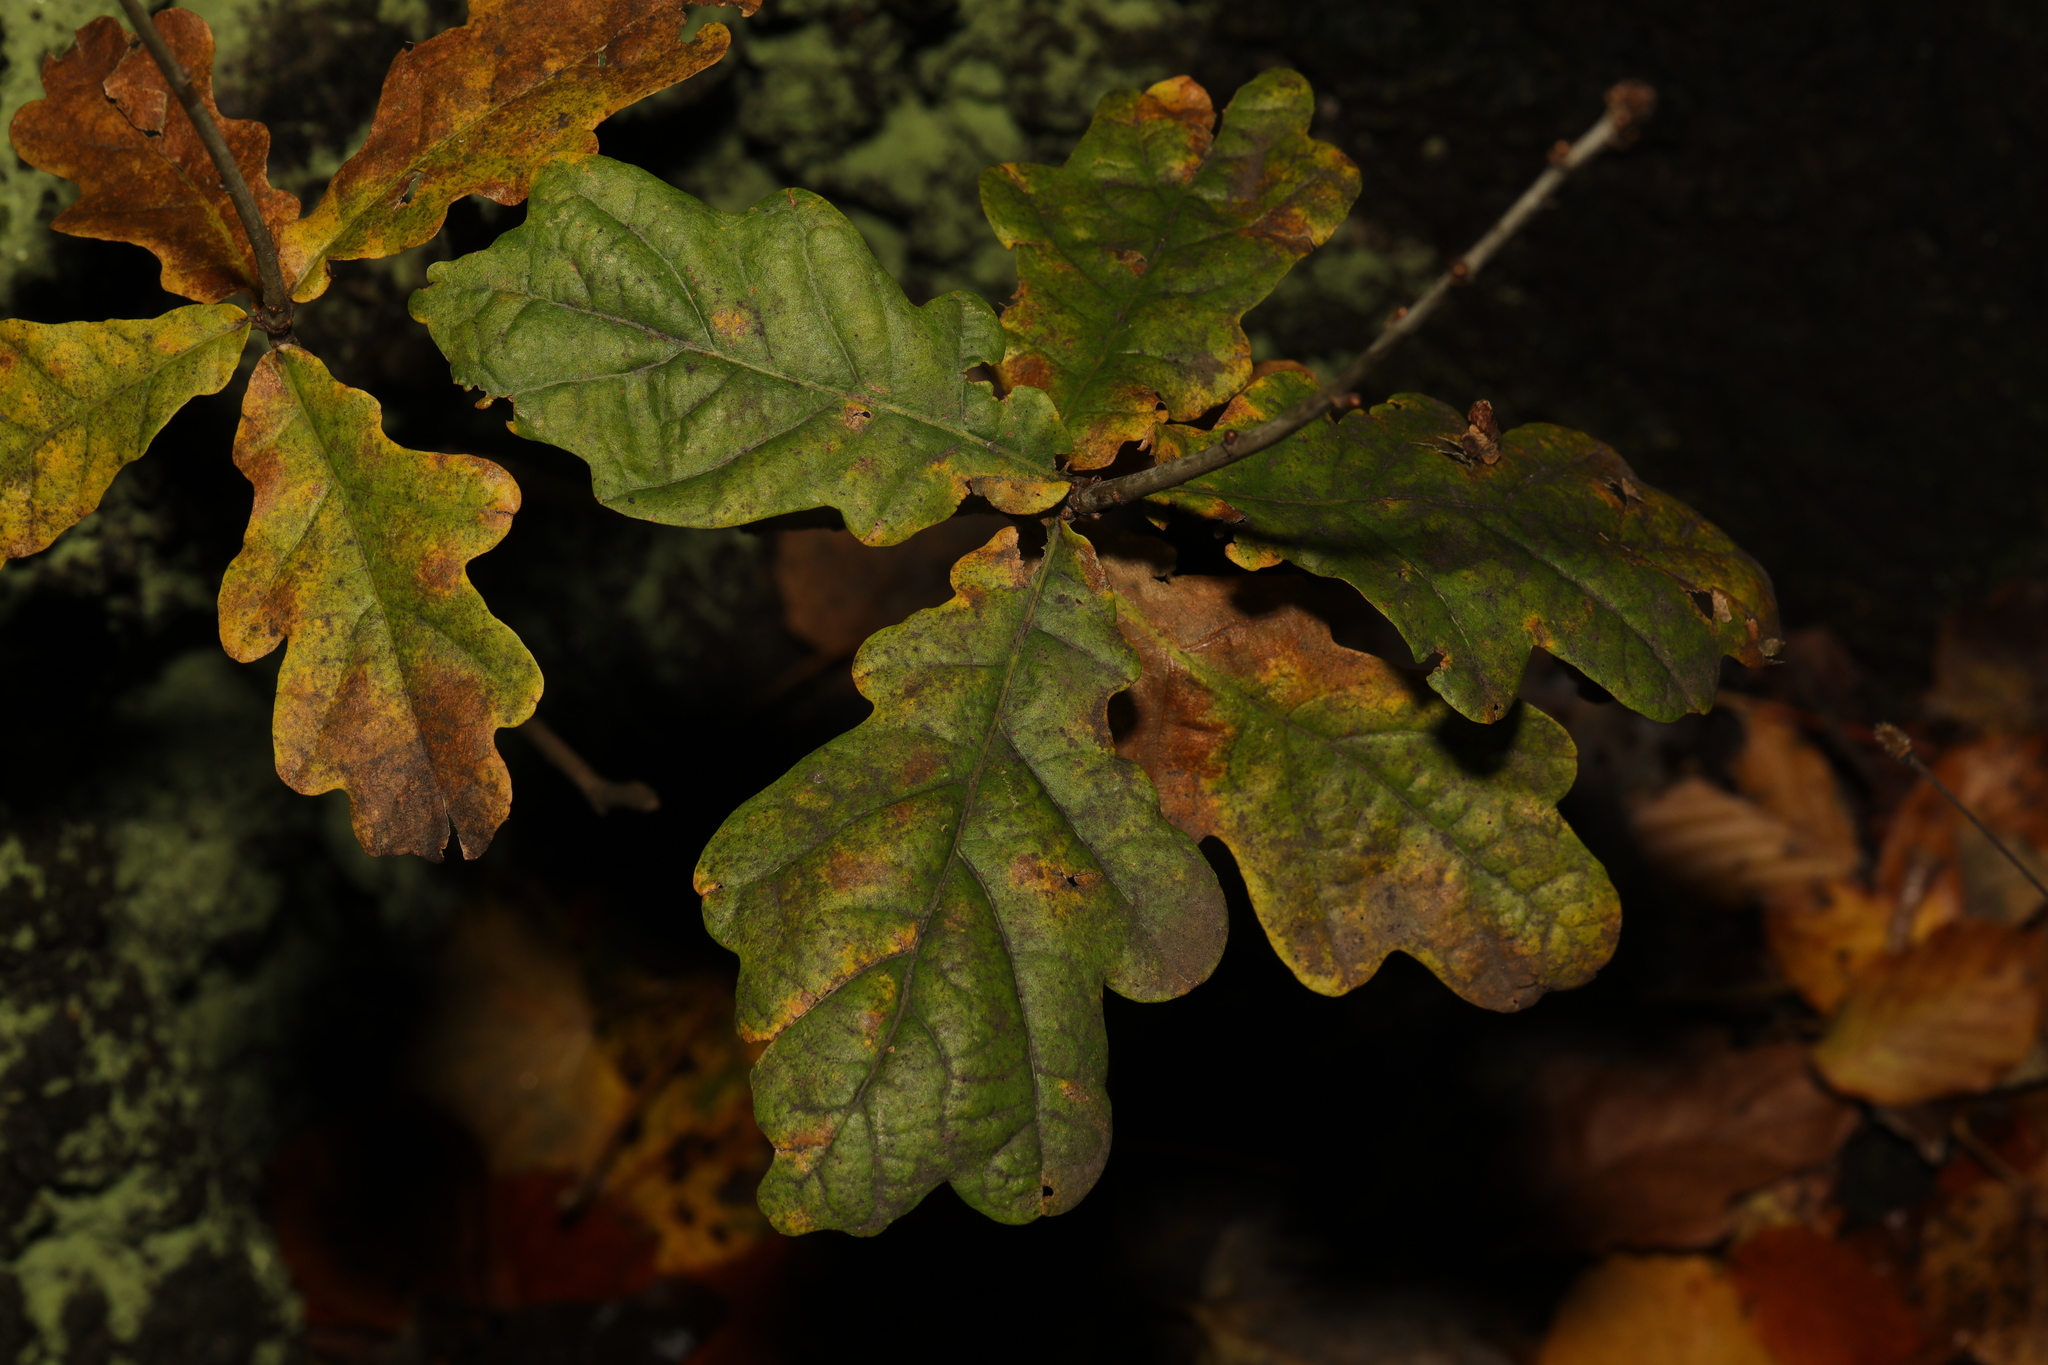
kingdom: Plantae
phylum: Tracheophyta
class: Magnoliopsida
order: Fagales
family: Fagaceae
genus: Quercus
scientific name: Quercus robur
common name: Pedunculate oak
